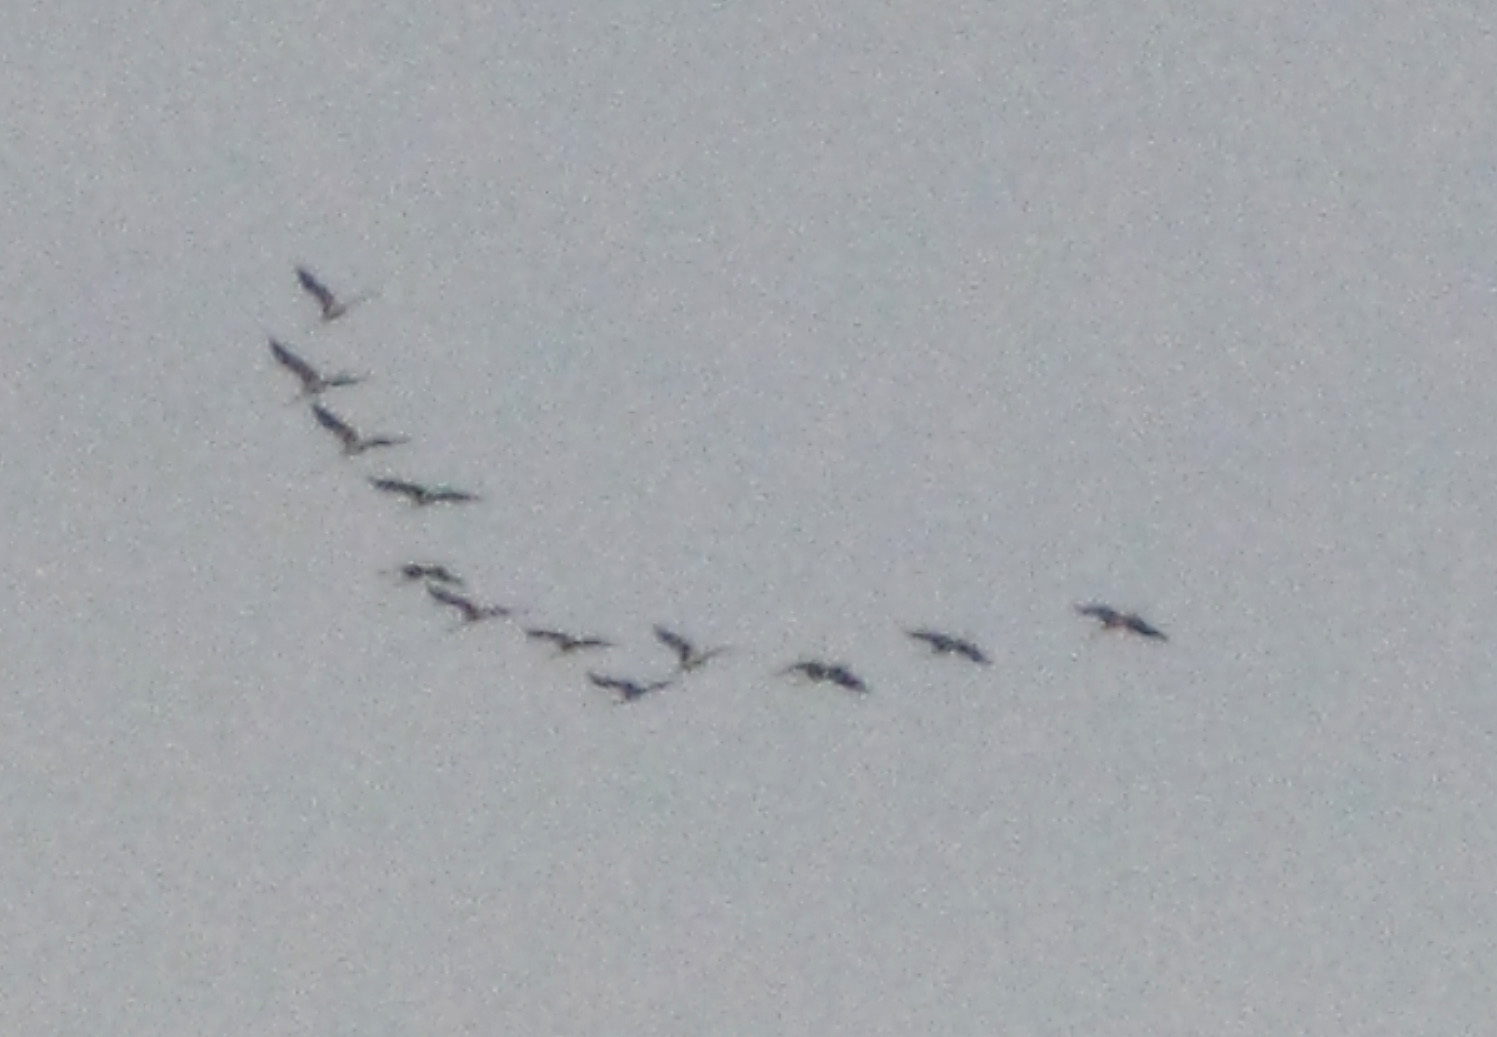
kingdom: Animalia
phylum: Chordata
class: Aves
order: Gruiformes
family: Gruidae
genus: Grus
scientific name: Grus grus
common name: Common crane
